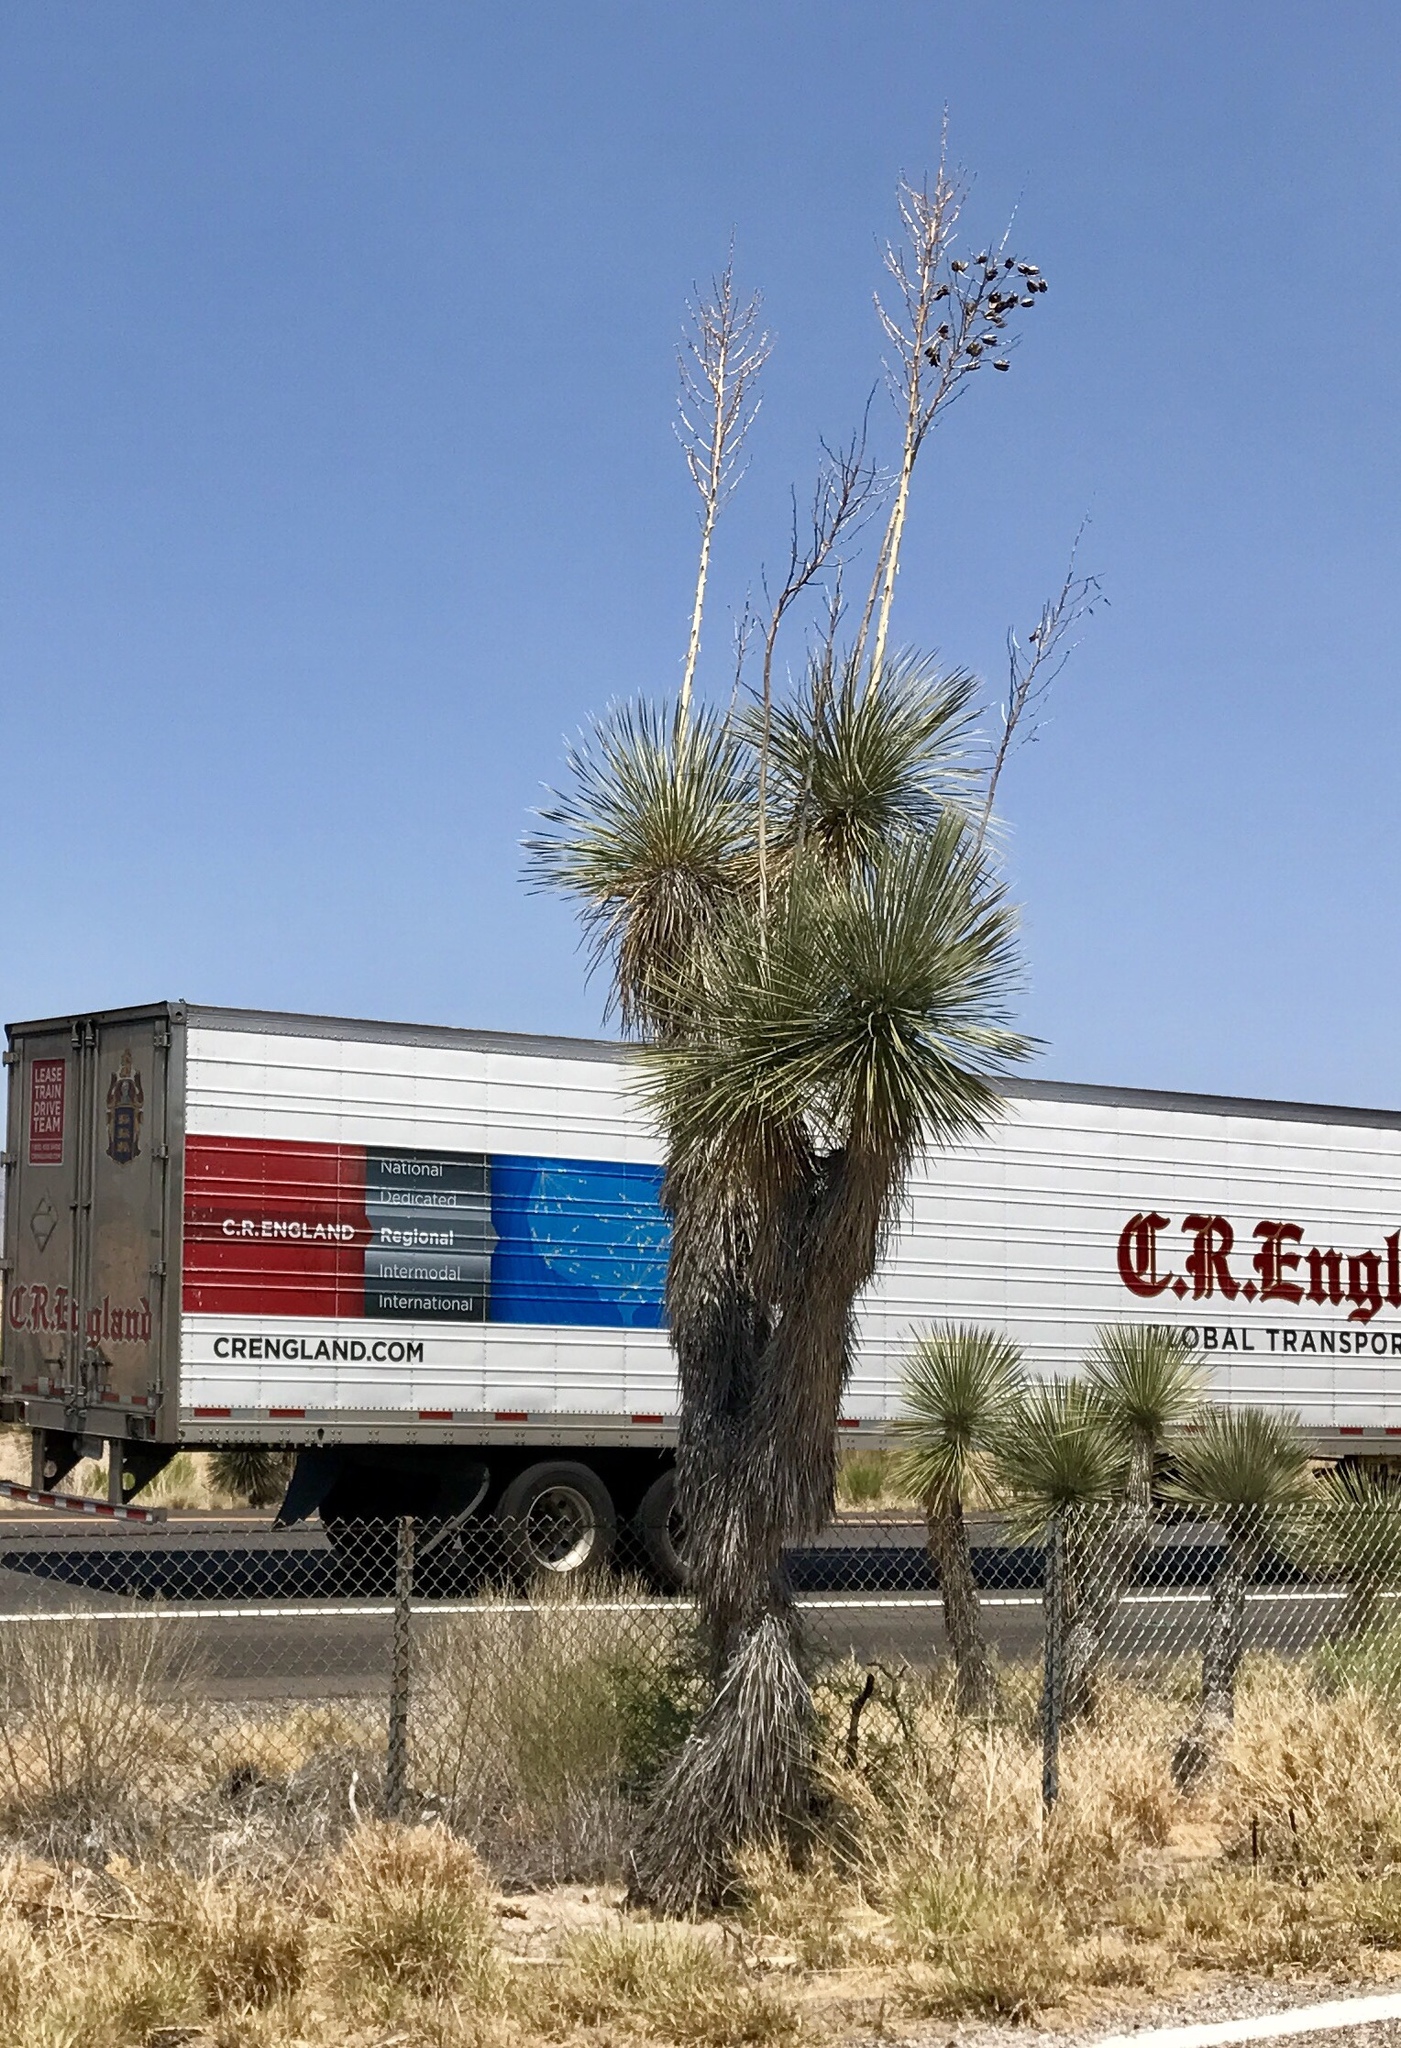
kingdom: Plantae
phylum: Tracheophyta
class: Liliopsida
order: Asparagales
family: Asparagaceae
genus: Yucca
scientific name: Yucca elata
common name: Palmella
